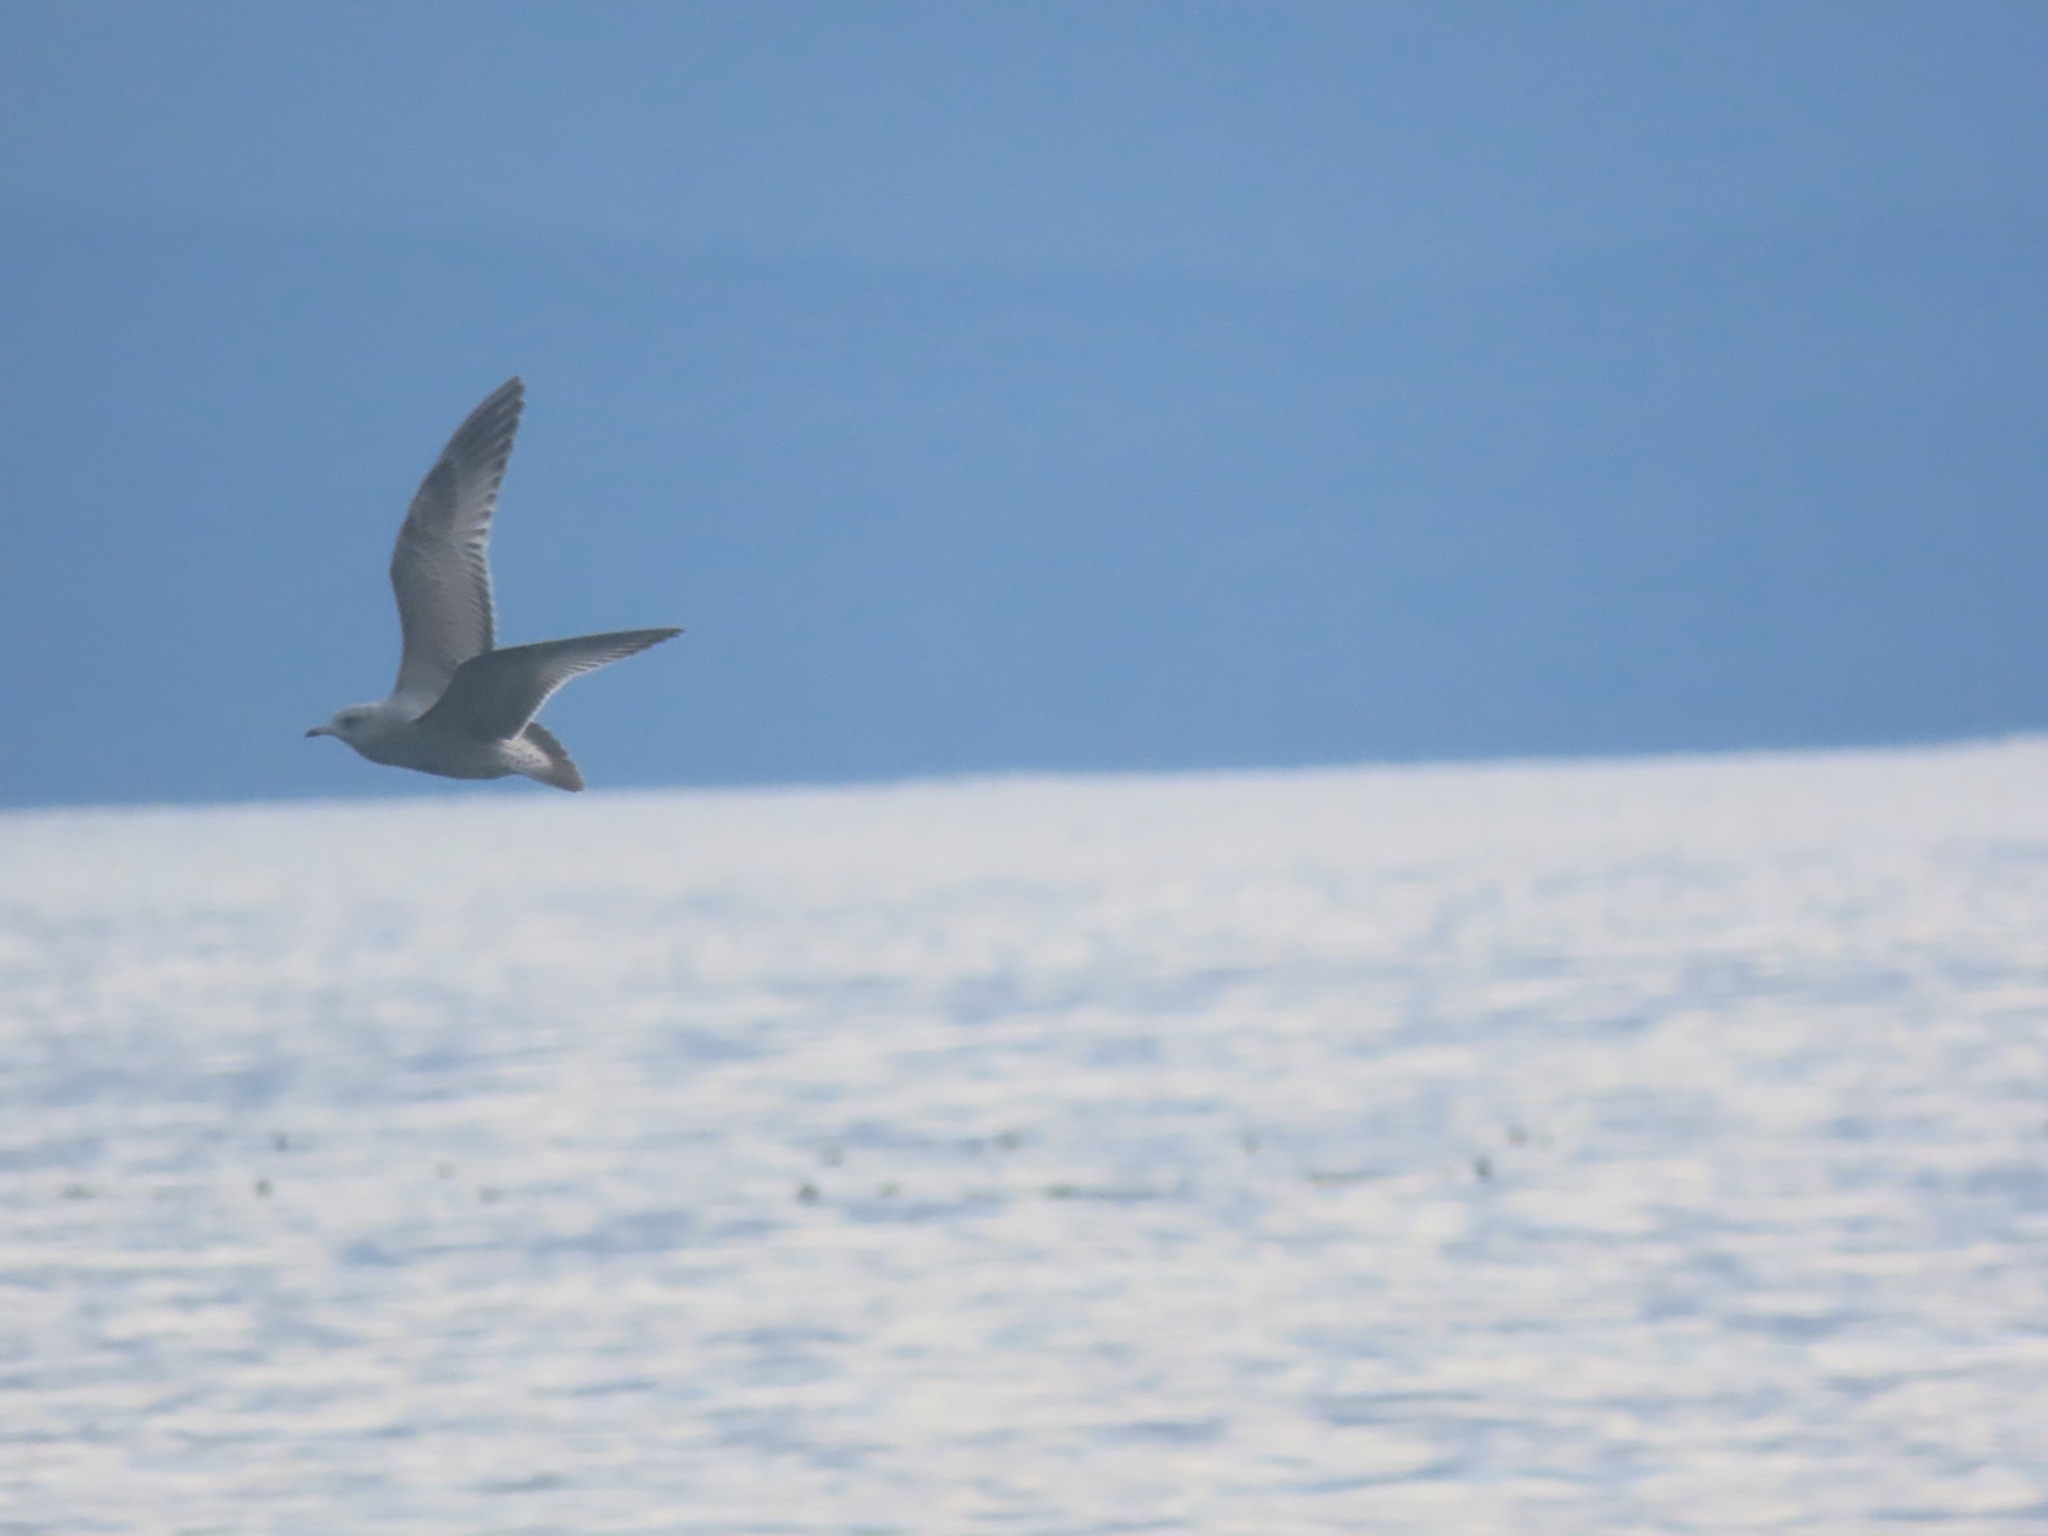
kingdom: Animalia
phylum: Chordata
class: Aves
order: Charadriiformes
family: Laridae
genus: Larus
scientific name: Larus brachyrhynchus
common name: Short-billed gull
